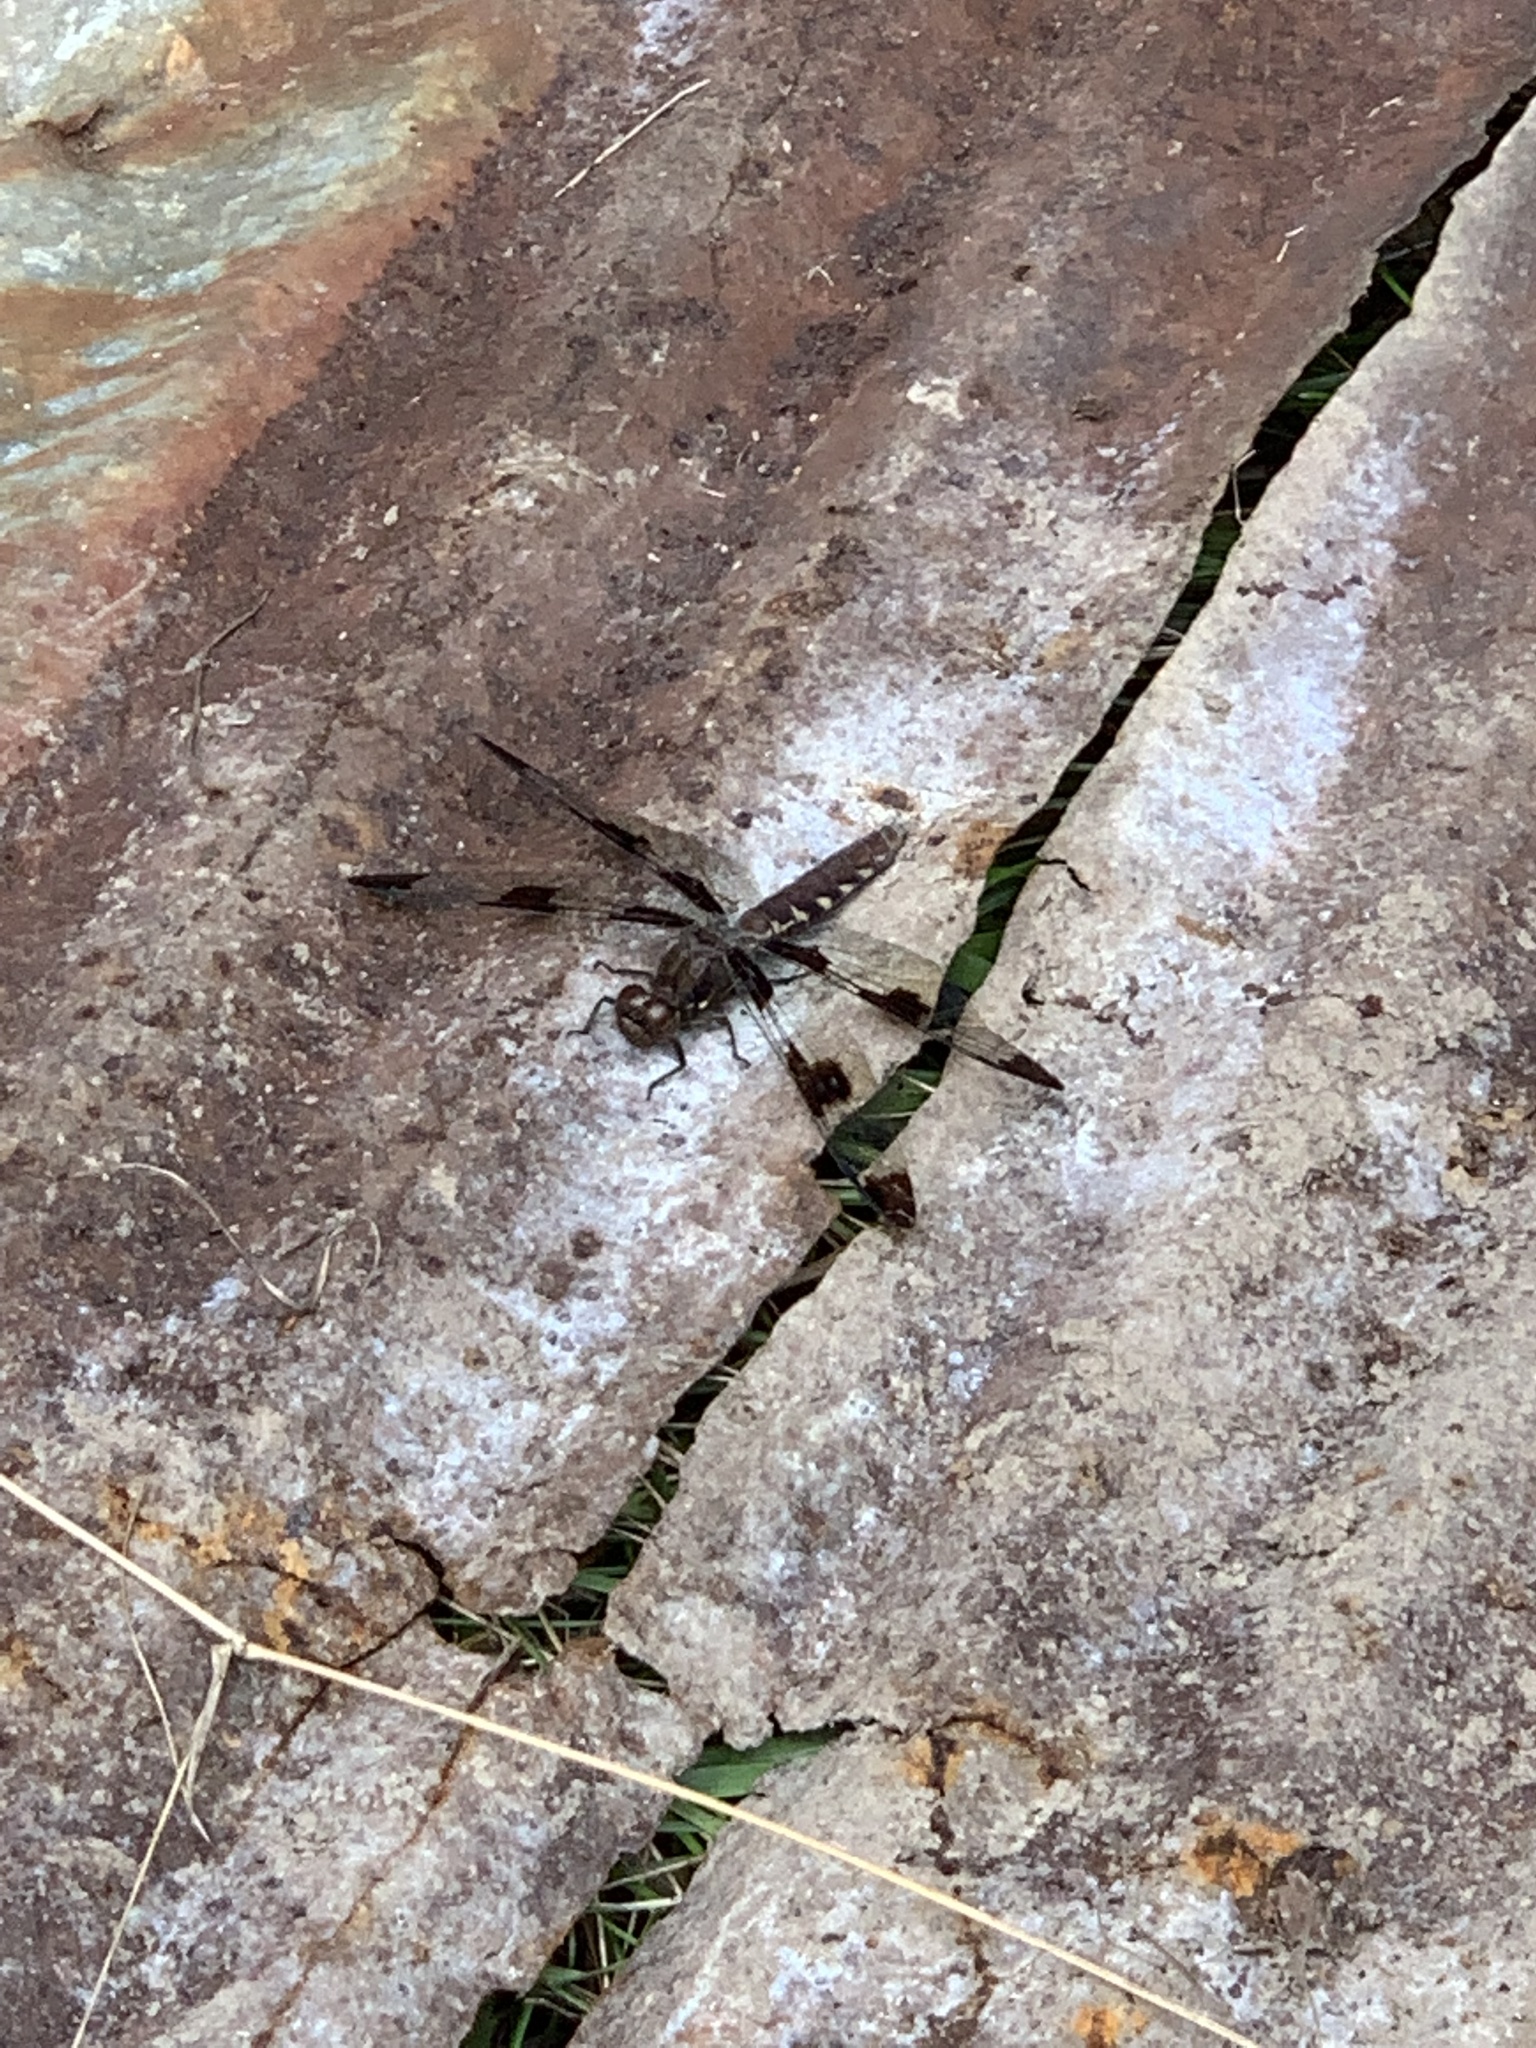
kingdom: Animalia
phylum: Arthropoda
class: Insecta
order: Odonata
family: Libellulidae
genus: Plathemis
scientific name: Plathemis lydia
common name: Common whitetail
